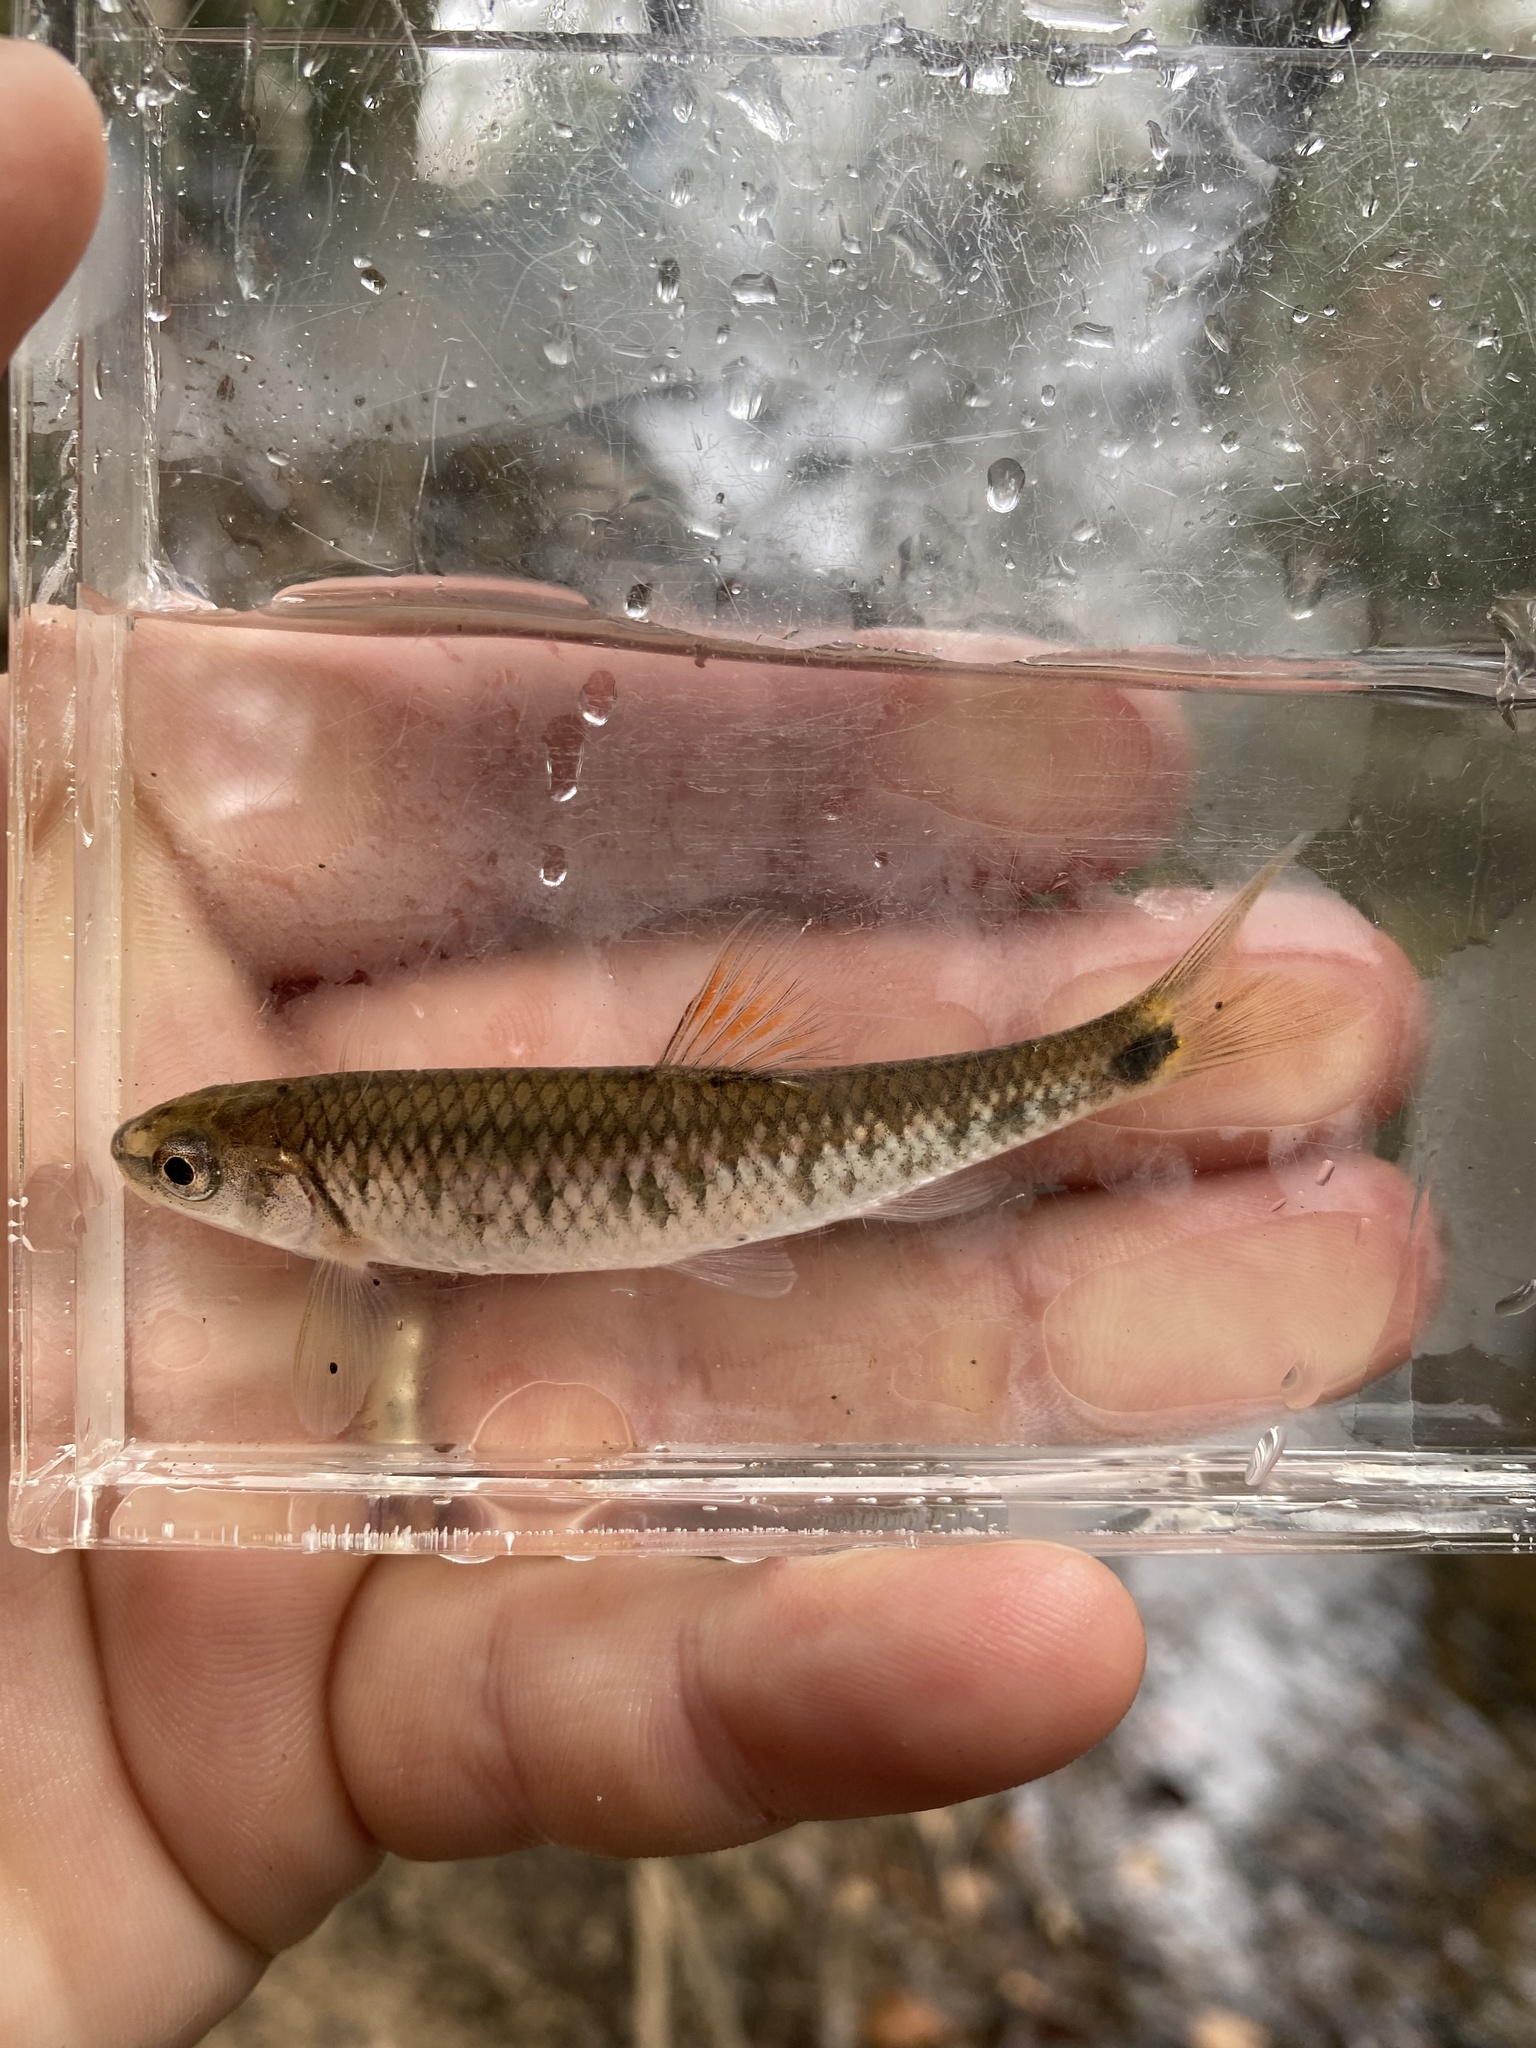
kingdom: Animalia
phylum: Chordata
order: Cypriniformes
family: Cyprinidae
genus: Cyprinella
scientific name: Cyprinella callistia
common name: Alabama shiner
